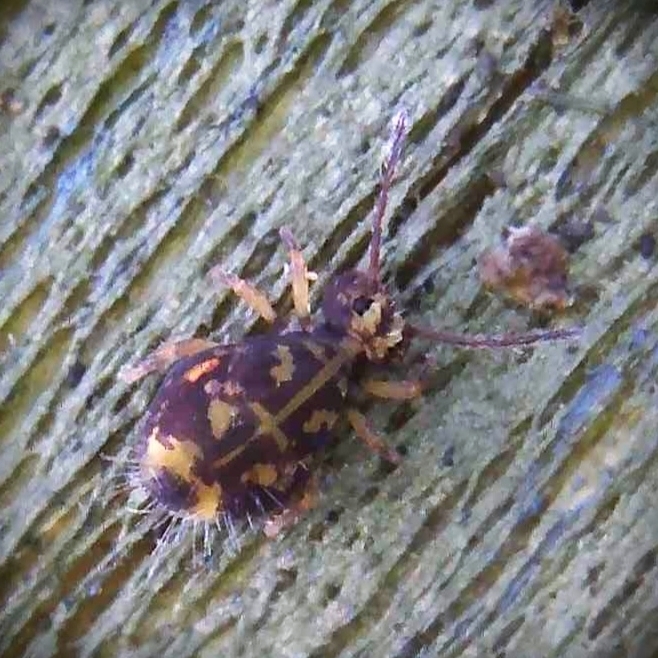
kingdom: Animalia
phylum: Arthropoda
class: Collembola
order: Symphypleona
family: Dicyrtomidae
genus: Dicyrtomina
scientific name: Dicyrtomina ornata
